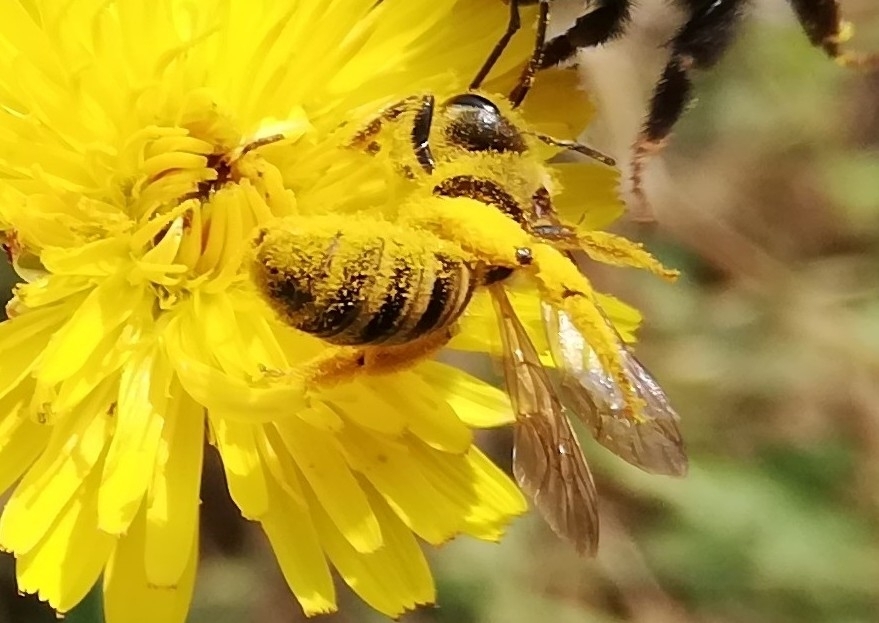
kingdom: Animalia
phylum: Arthropoda
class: Insecta
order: Hymenoptera
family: Halictidae
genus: Halictus
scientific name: Halictus scabiosae
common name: Great banded furrow bee
